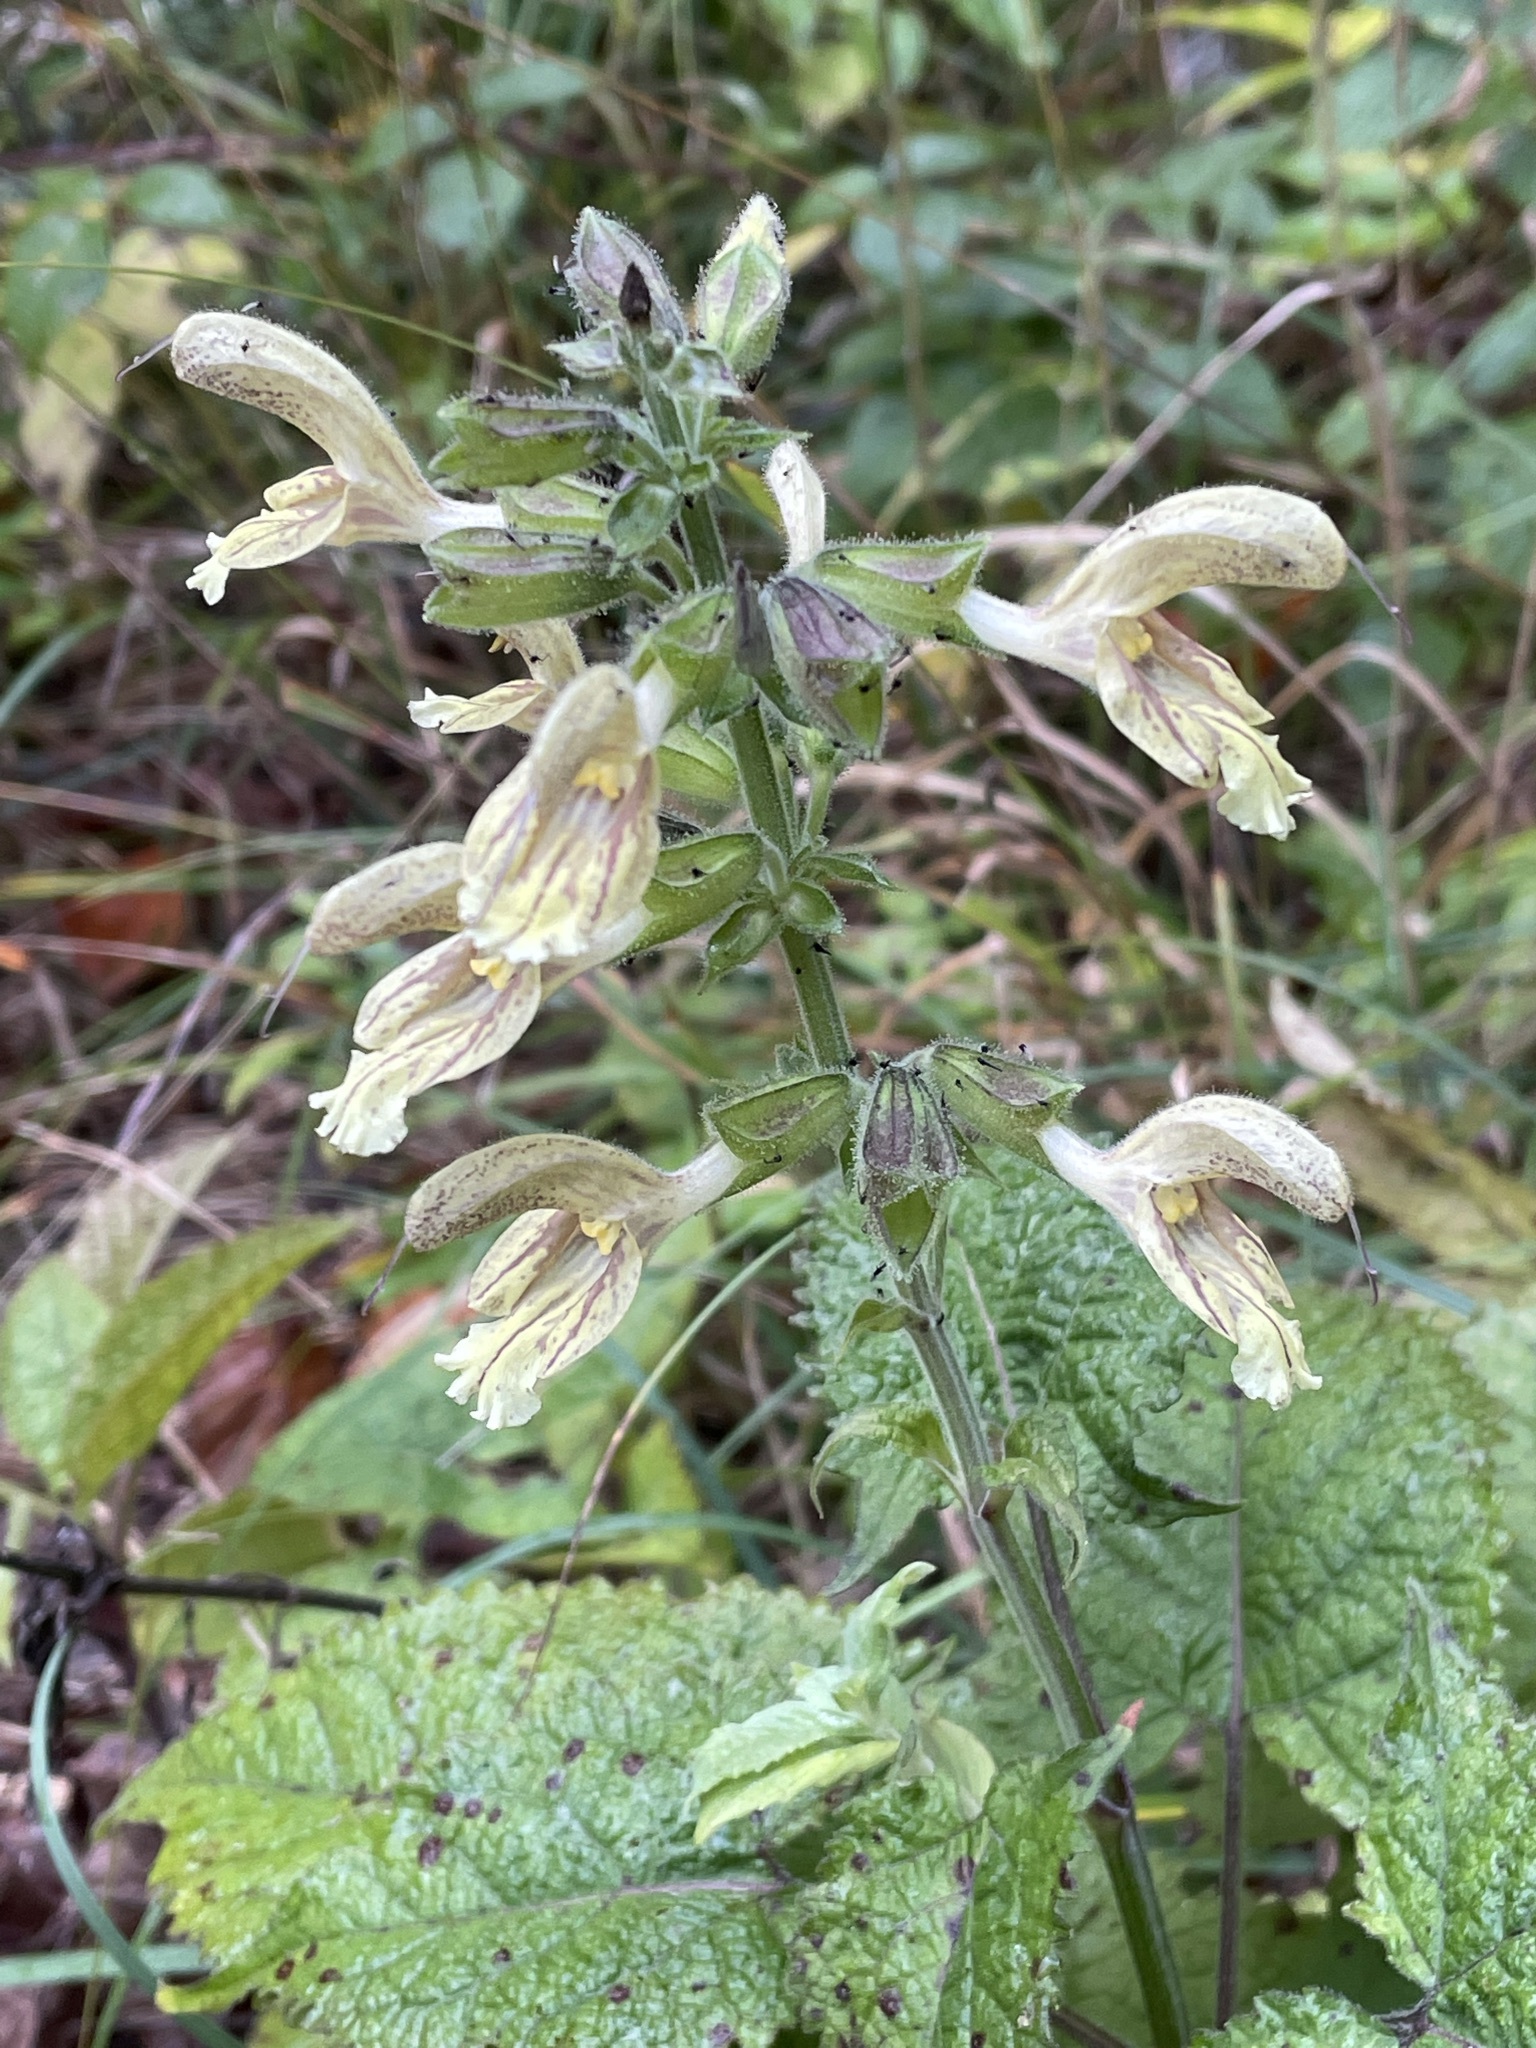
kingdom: Plantae
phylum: Tracheophyta
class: Magnoliopsida
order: Lamiales
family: Lamiaceae
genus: Salvia
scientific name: Salvia glutinosa
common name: Sticky clary
